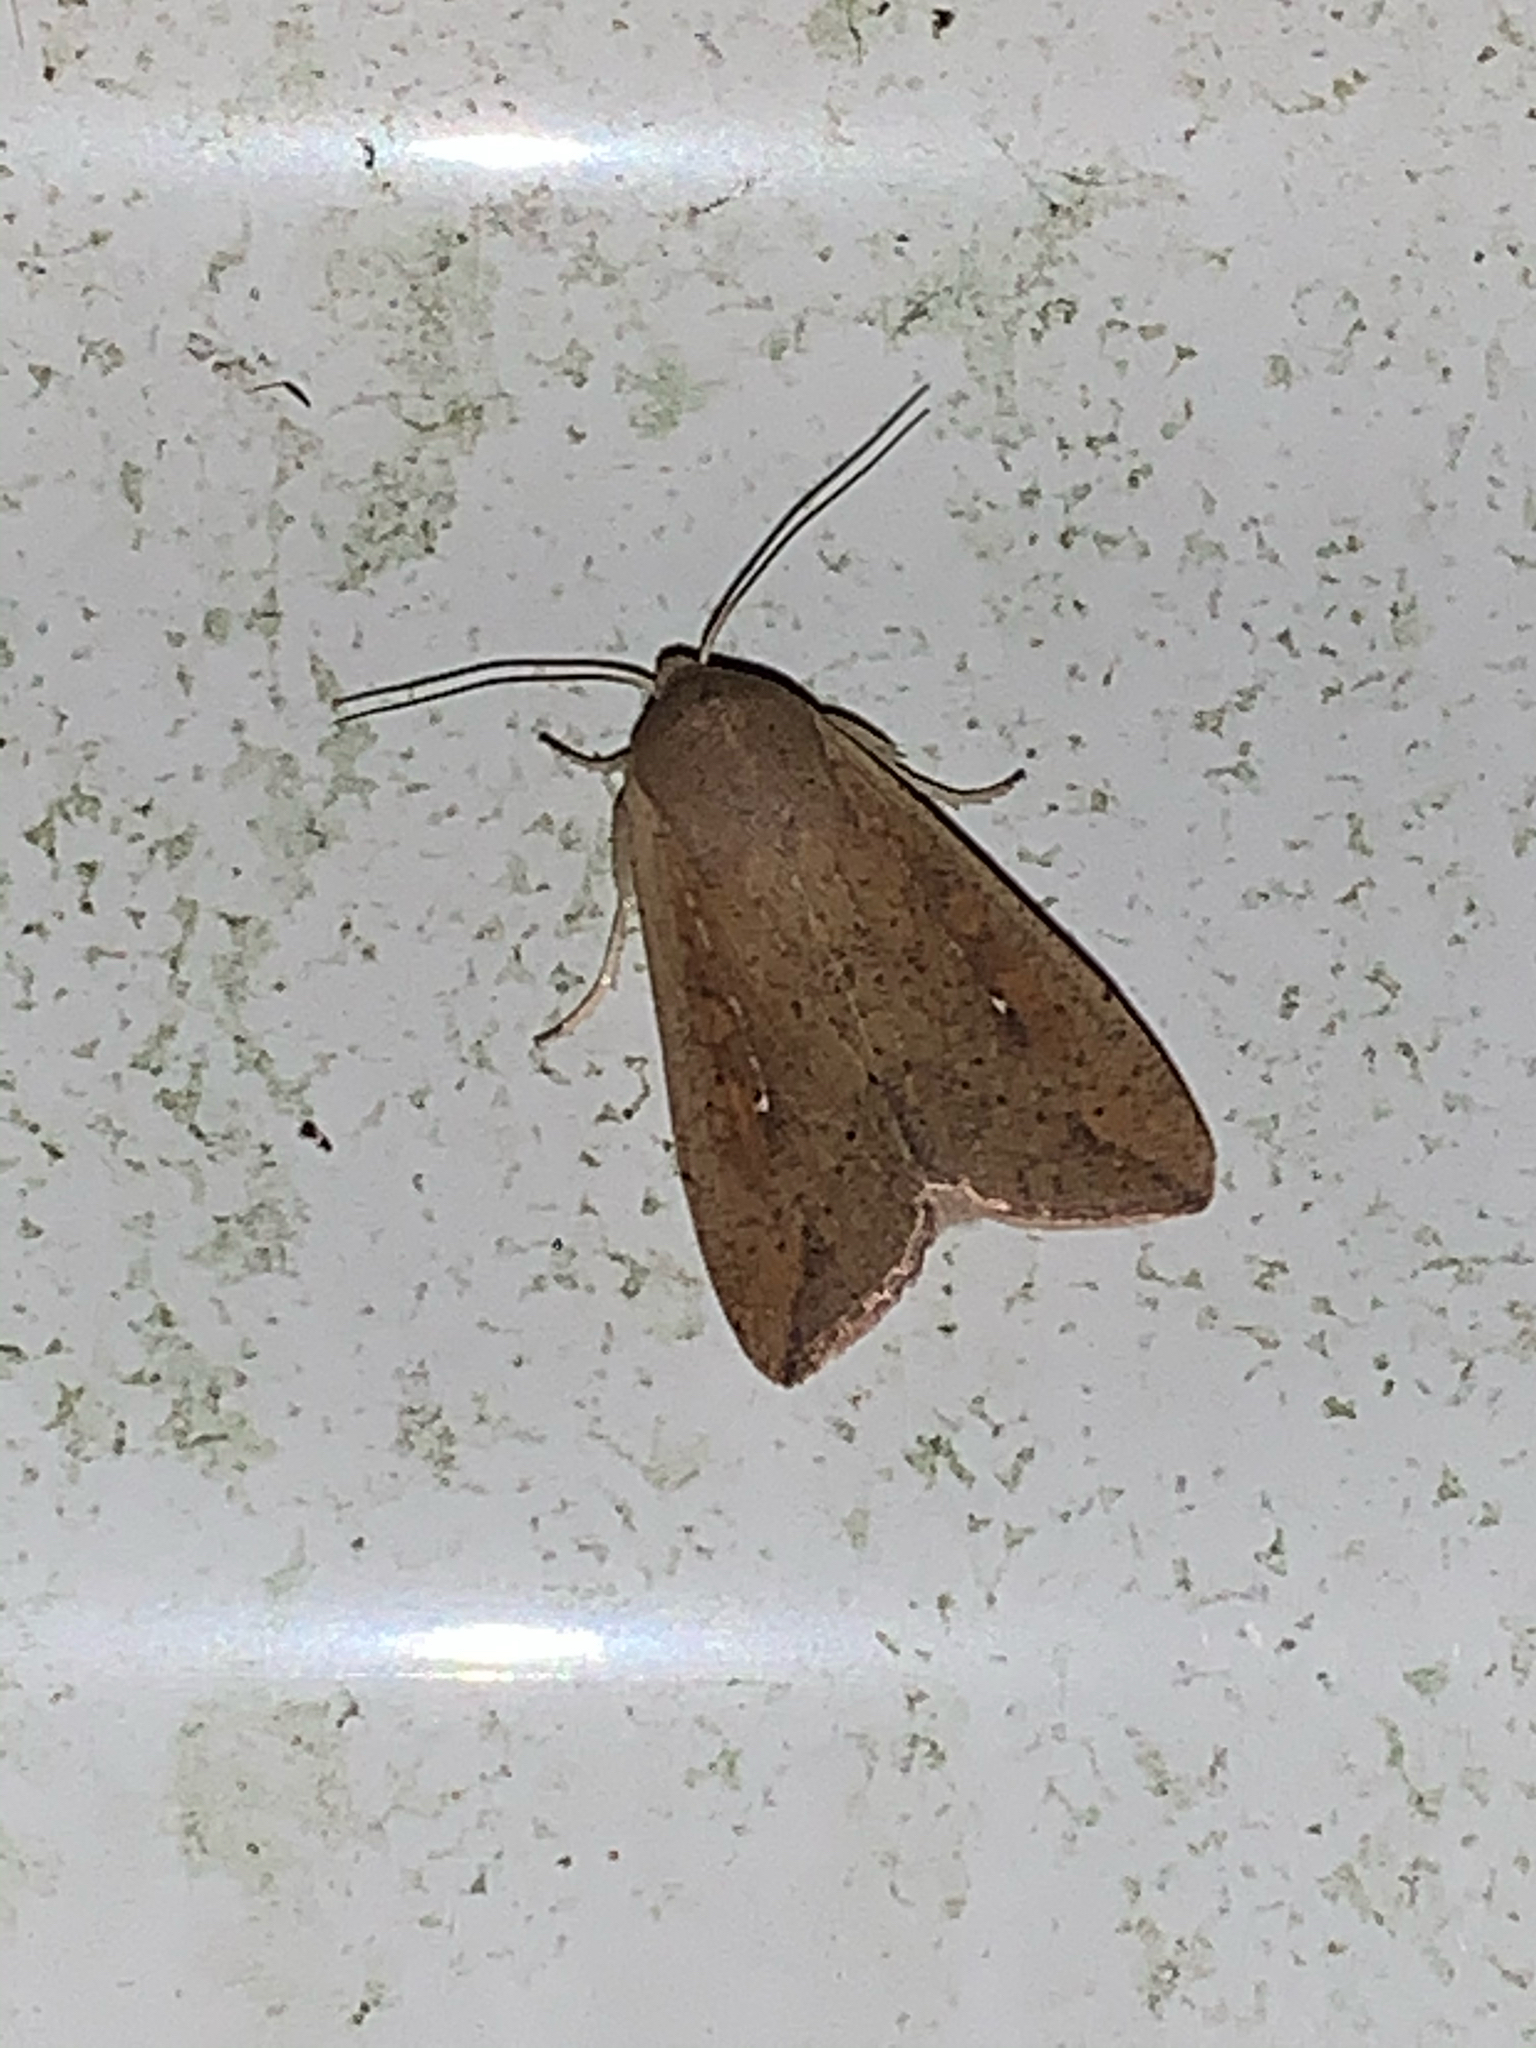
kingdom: Animalia
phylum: Arthropoda
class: Insecta
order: Lepidoptera
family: Noctuidae
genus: Mythimna
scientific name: Mythimna unipuncta
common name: White-speck
